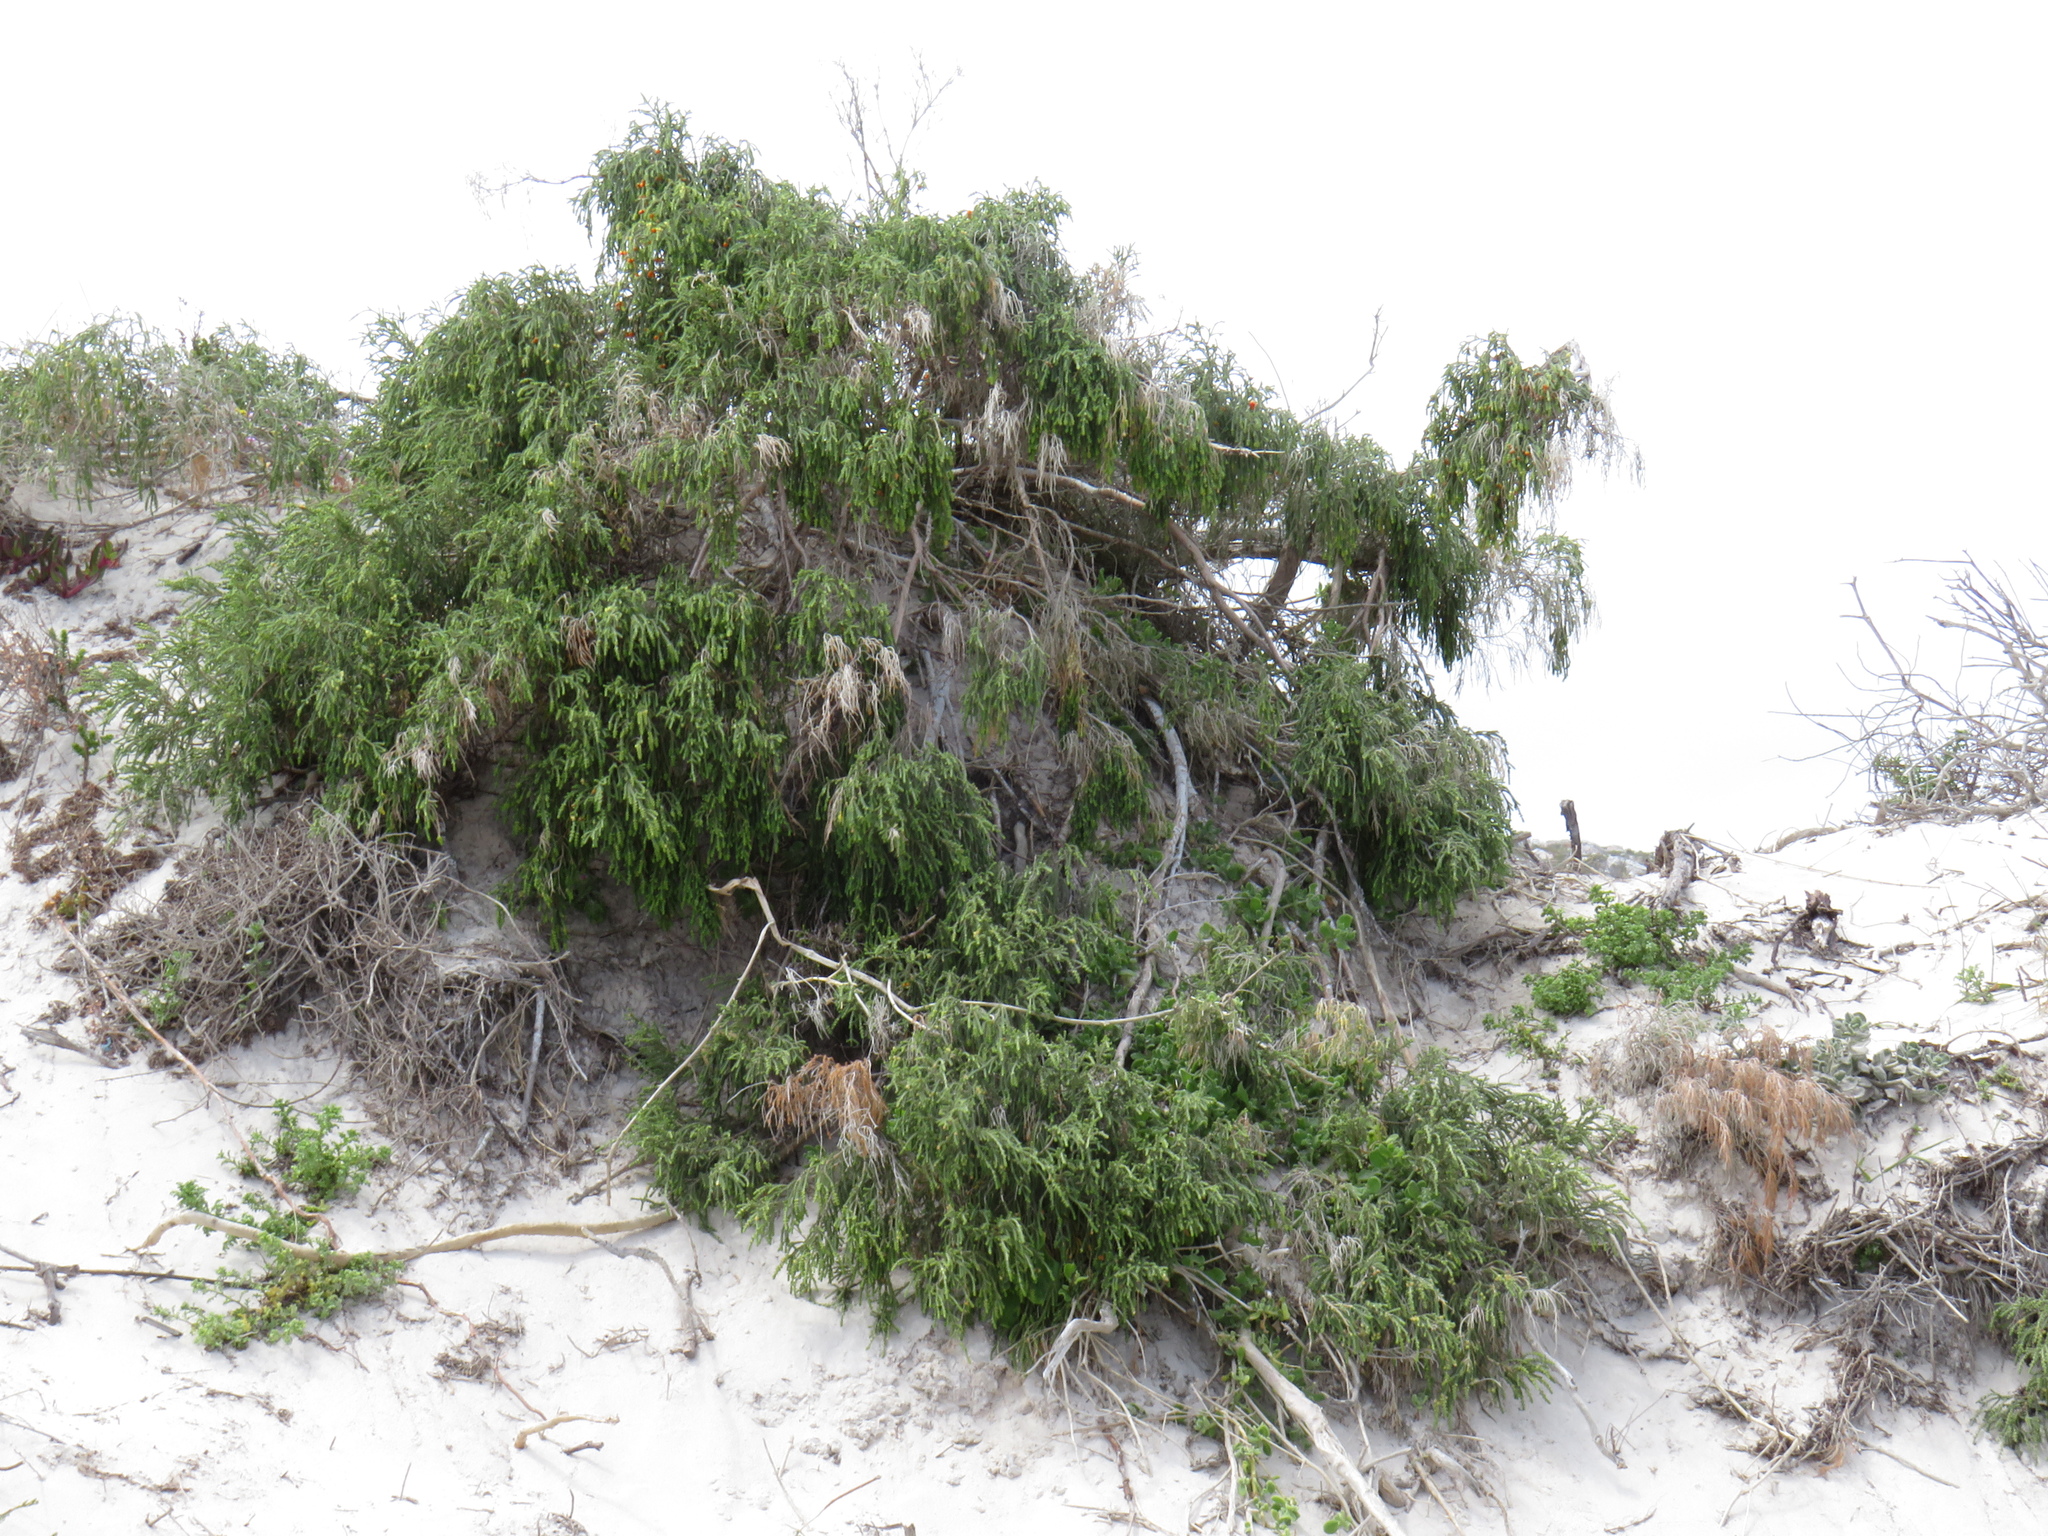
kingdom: Plantae
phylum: Tracheophyta
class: Magnoliopsida
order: Malvales
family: Thymelaeaceae
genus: Passerina
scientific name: Passerina ericoides
